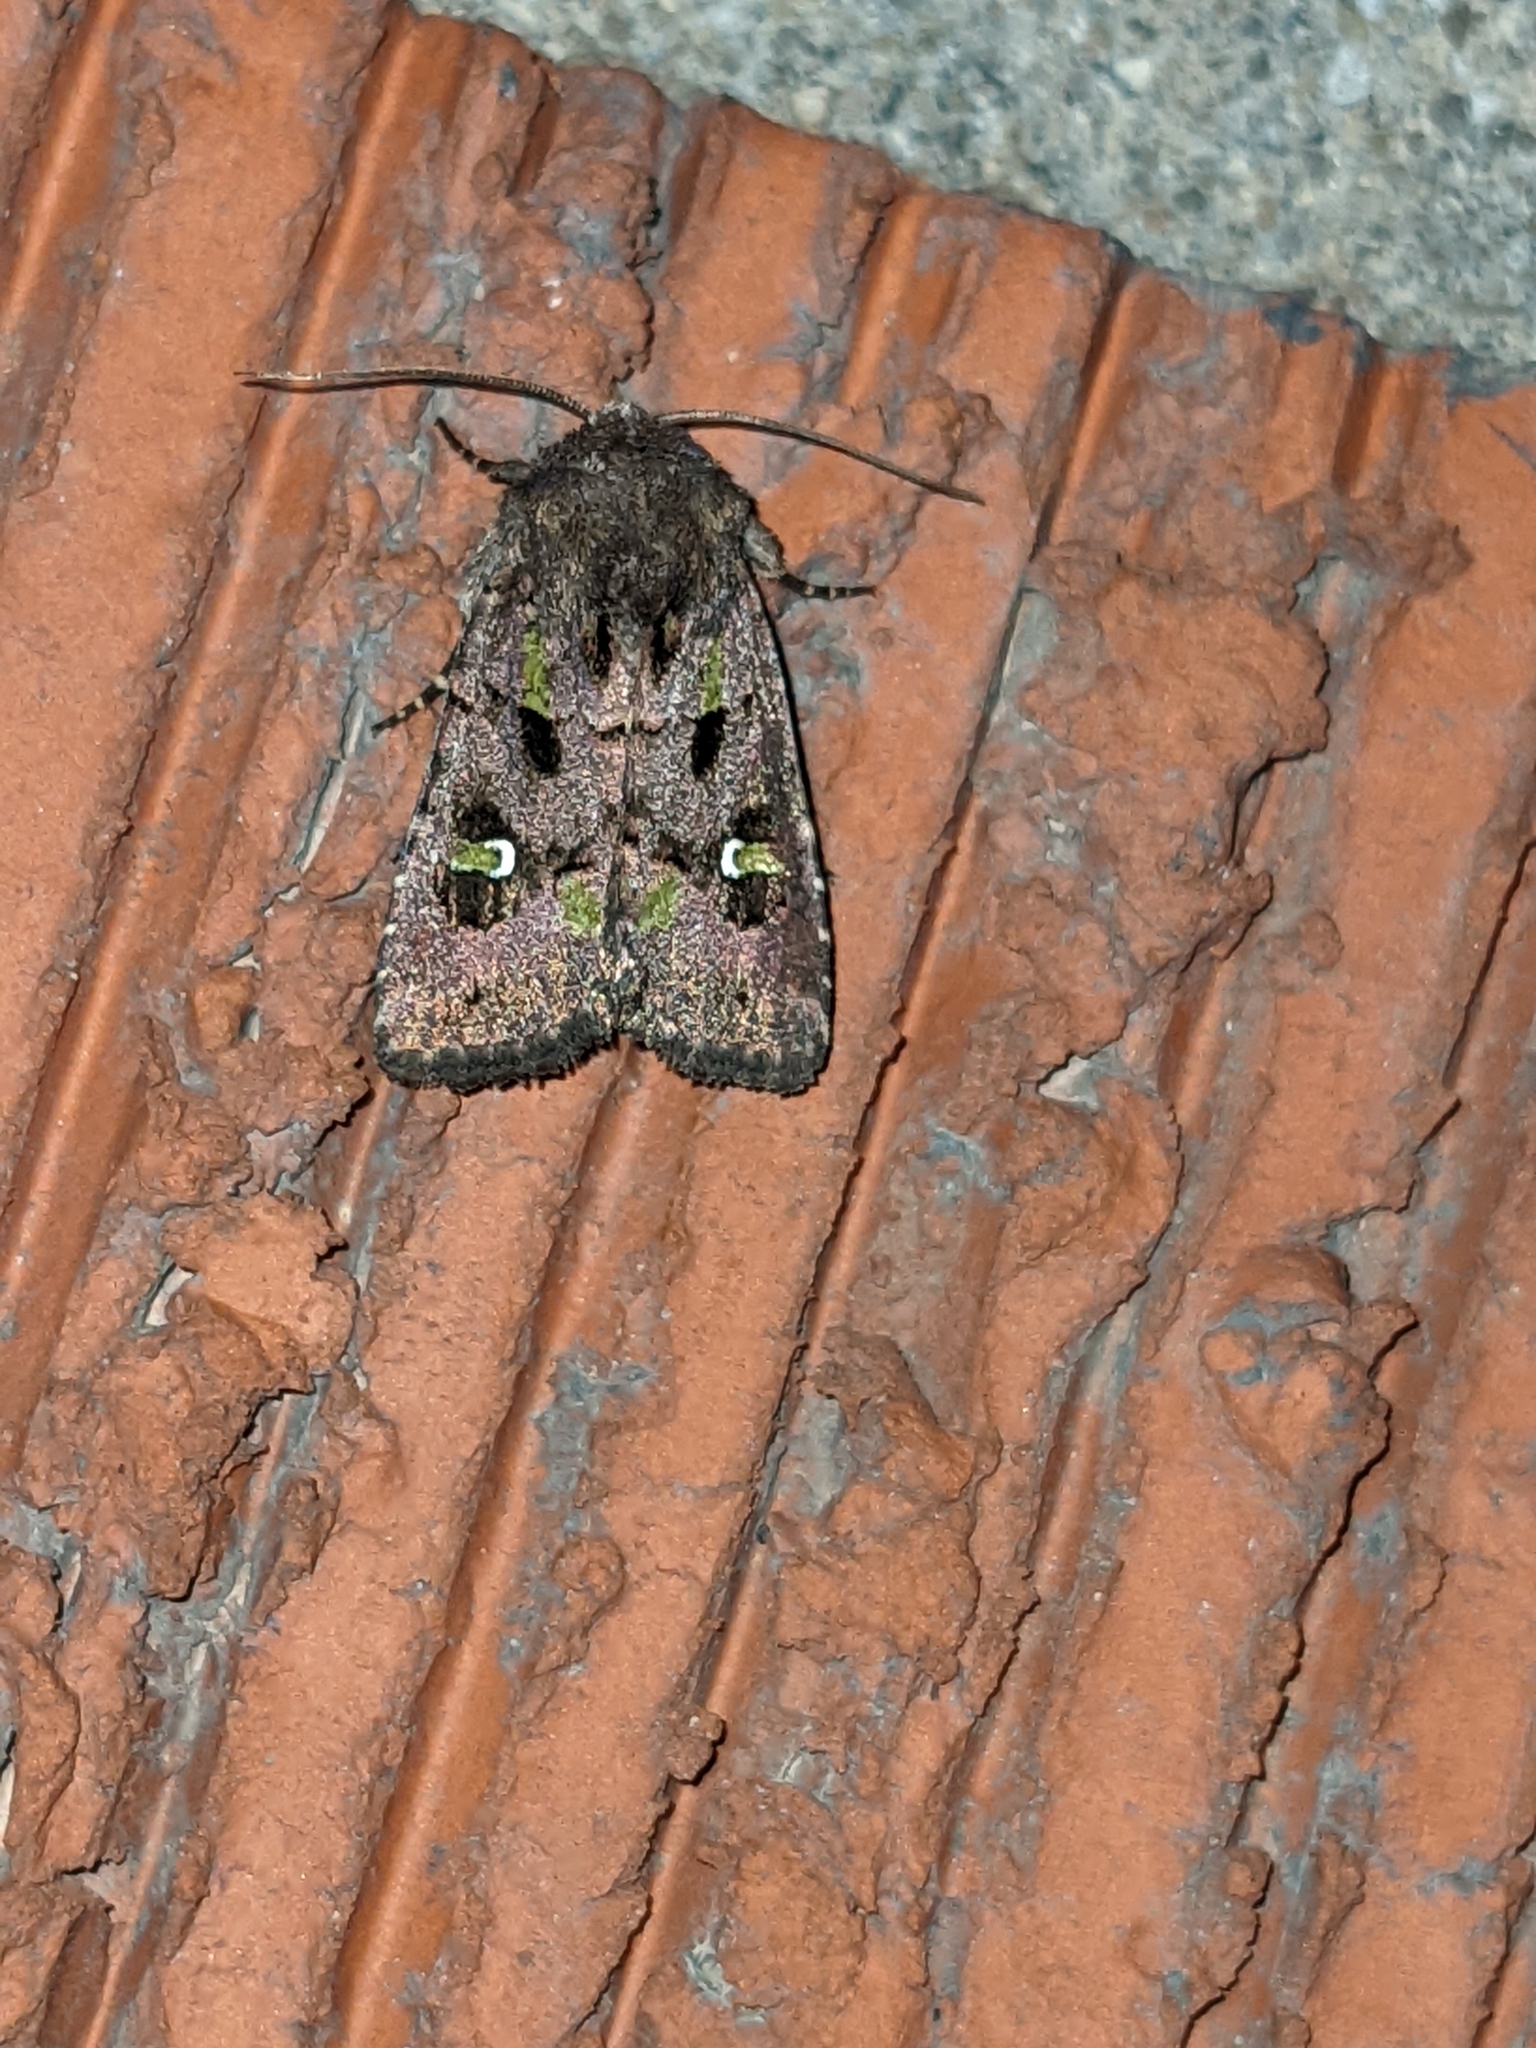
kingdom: Animalia
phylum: Arthropoda
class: Insecta
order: Lepidoptera
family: Noctuidae
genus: Lacinipolia
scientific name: Lacinipolia renigera
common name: Kidney-spotted minor
